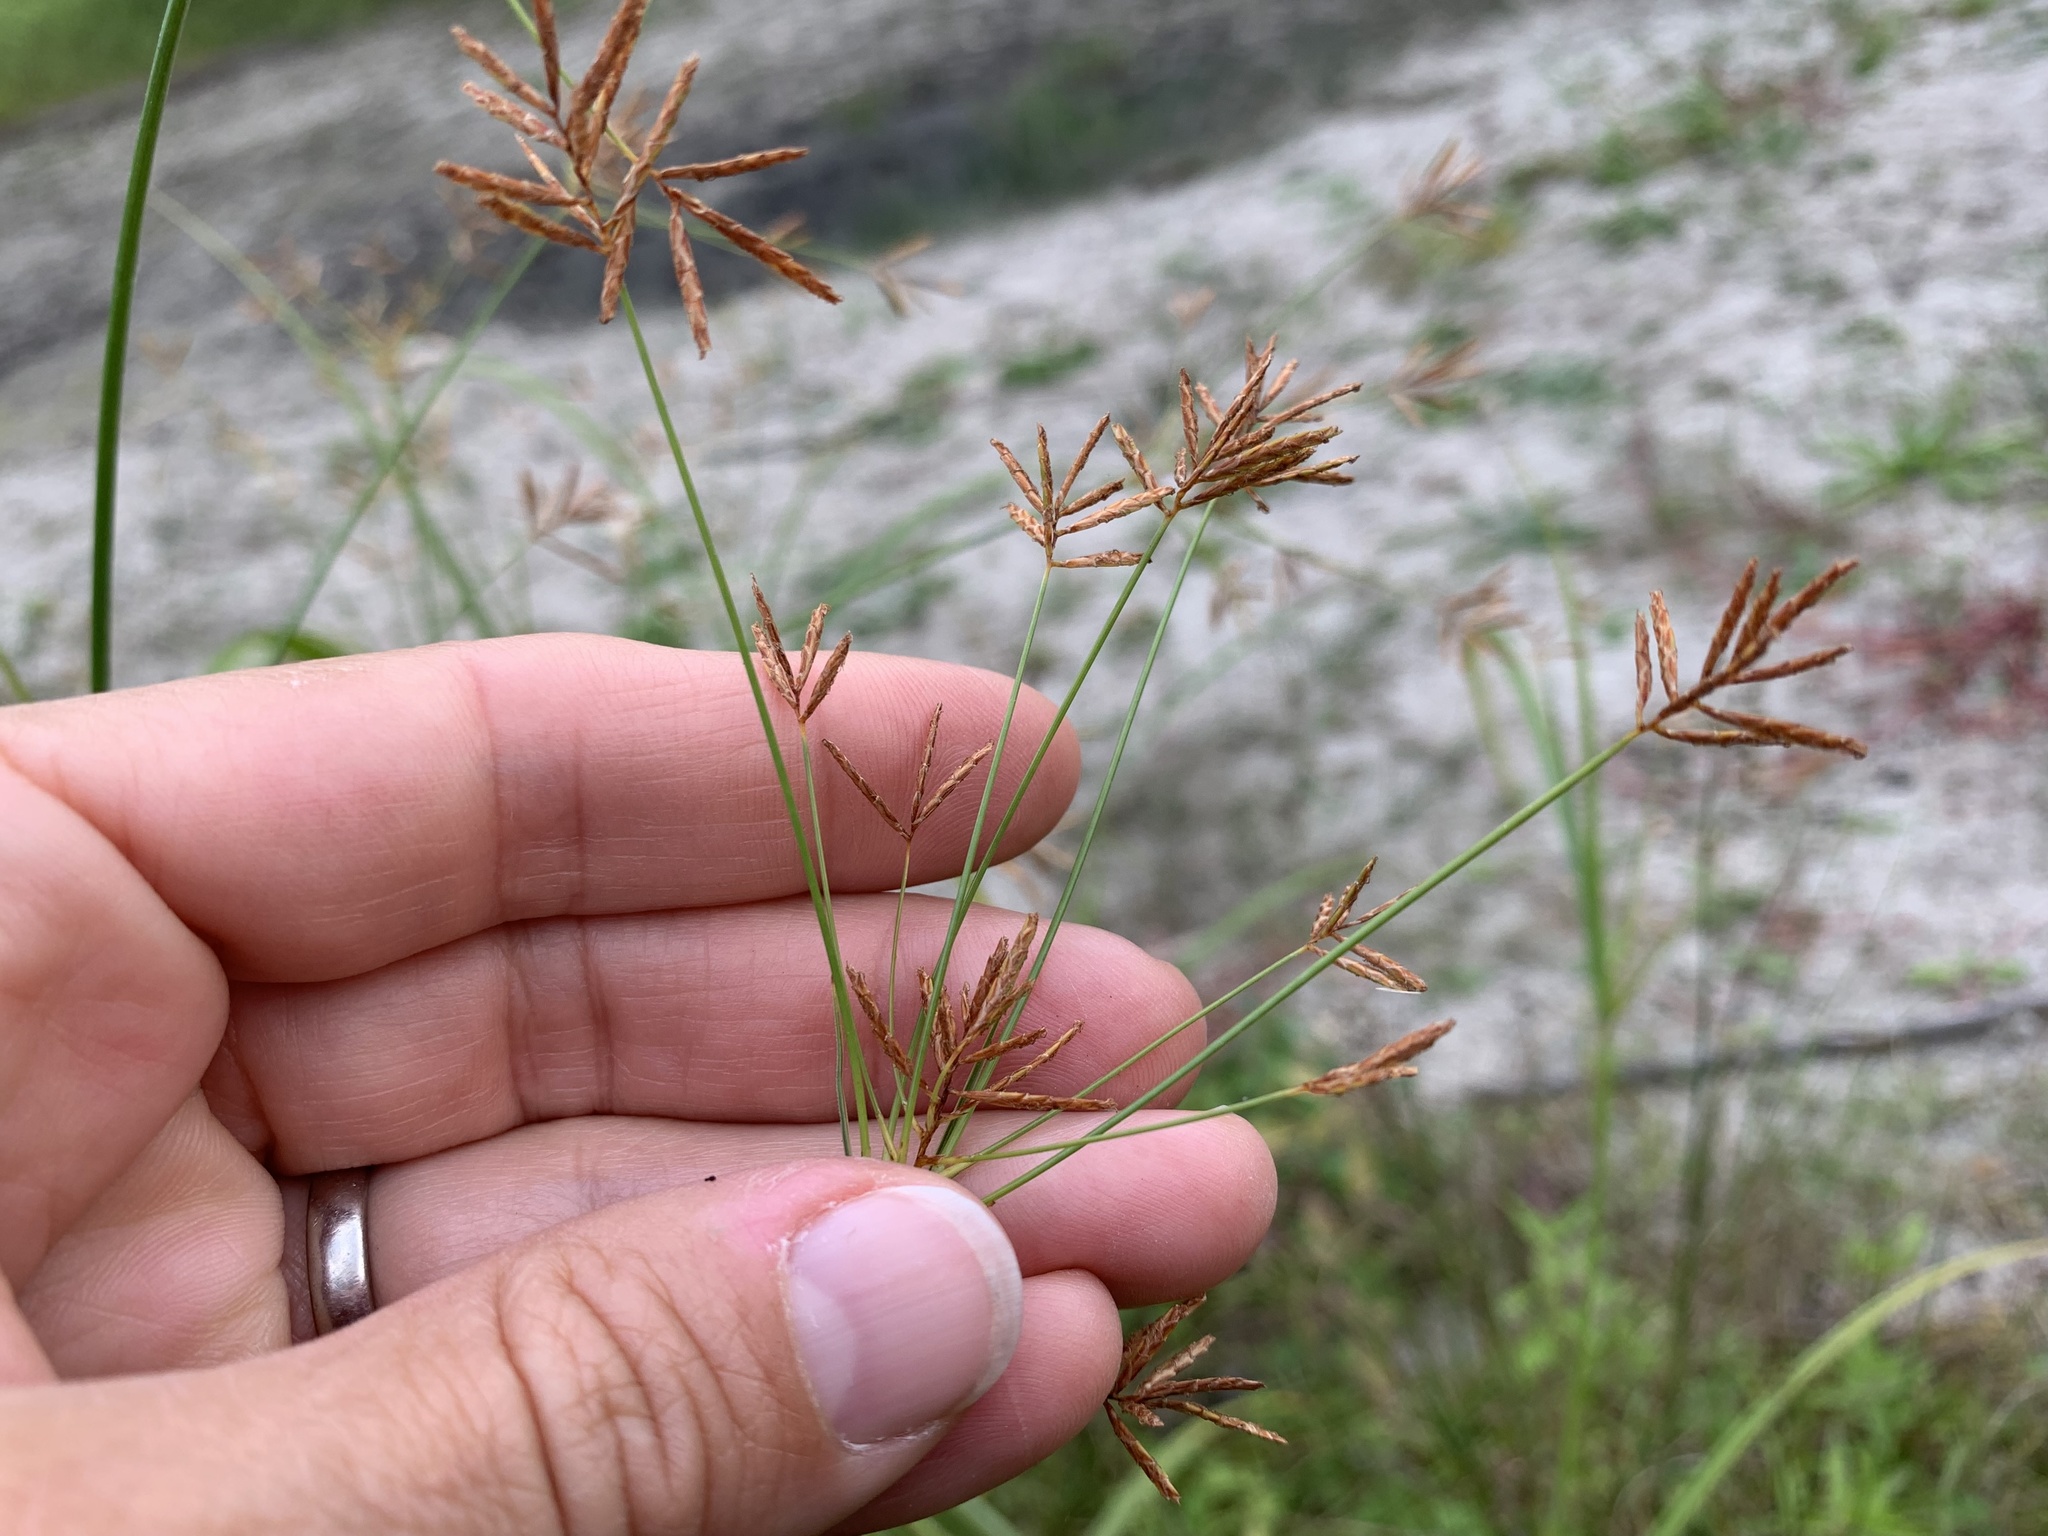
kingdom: Plantae
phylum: Tracheophyta
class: Liliopsida
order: Poales
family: Cyperaceae
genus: Cyperus
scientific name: Cyperus longus
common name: Galingale
